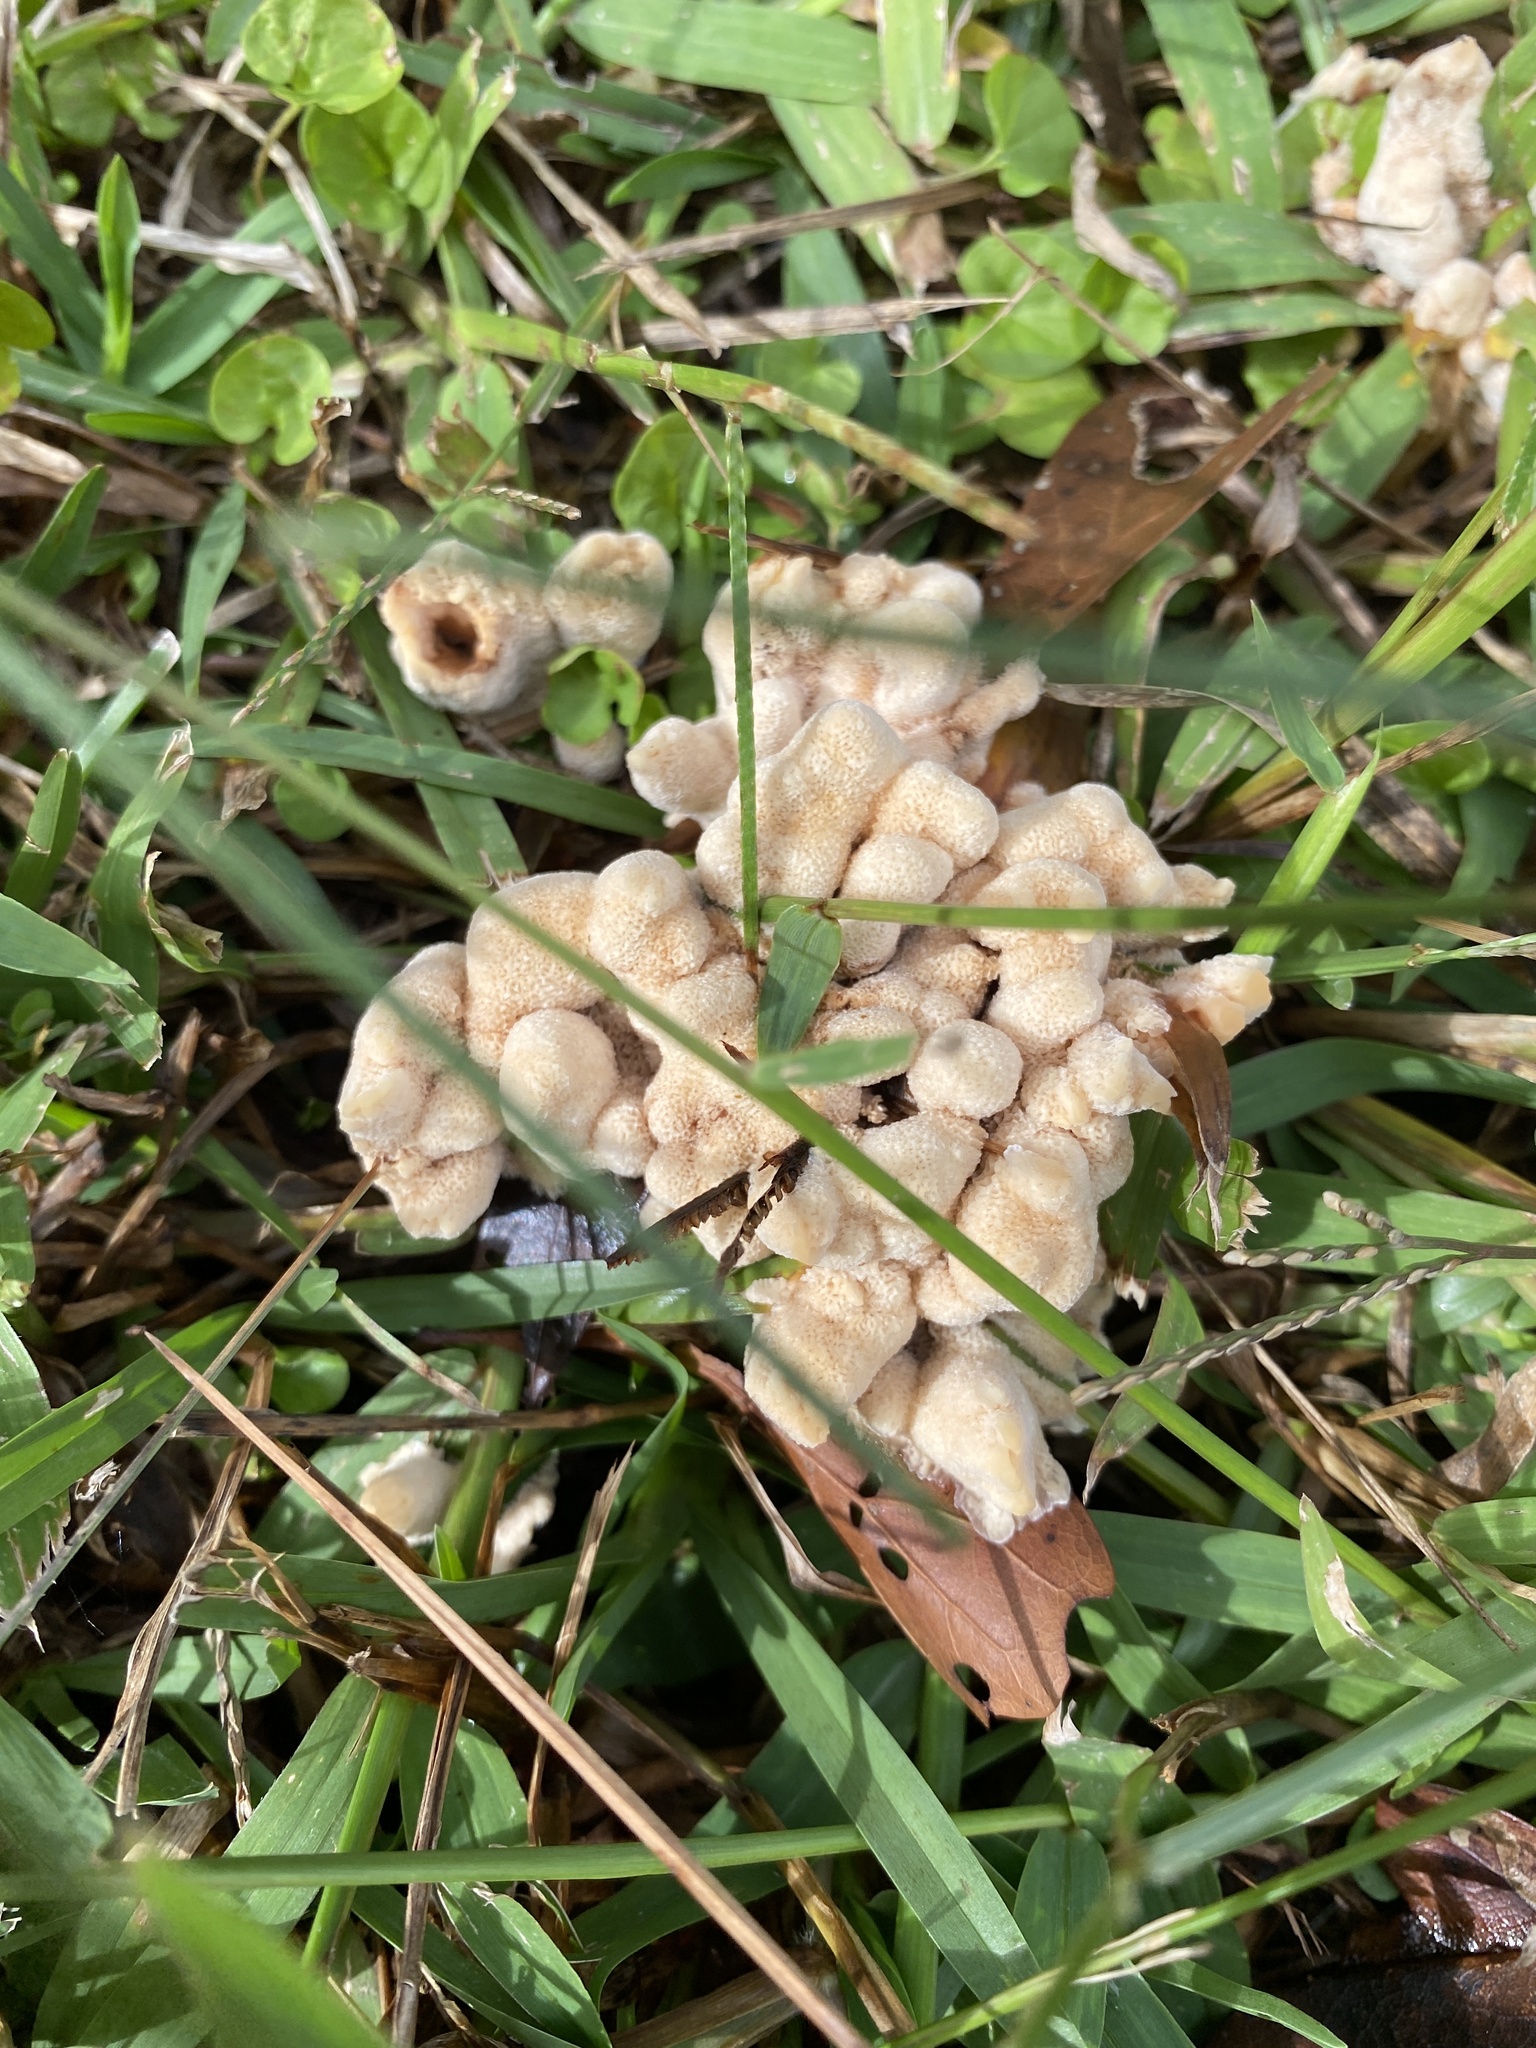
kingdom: Fungi
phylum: Basidiomycota
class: Agaricomycetes
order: Polyporales
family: Podoscyphaceae
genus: Abortiporus
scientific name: Abortiporus biennis
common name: Blushing rosette
